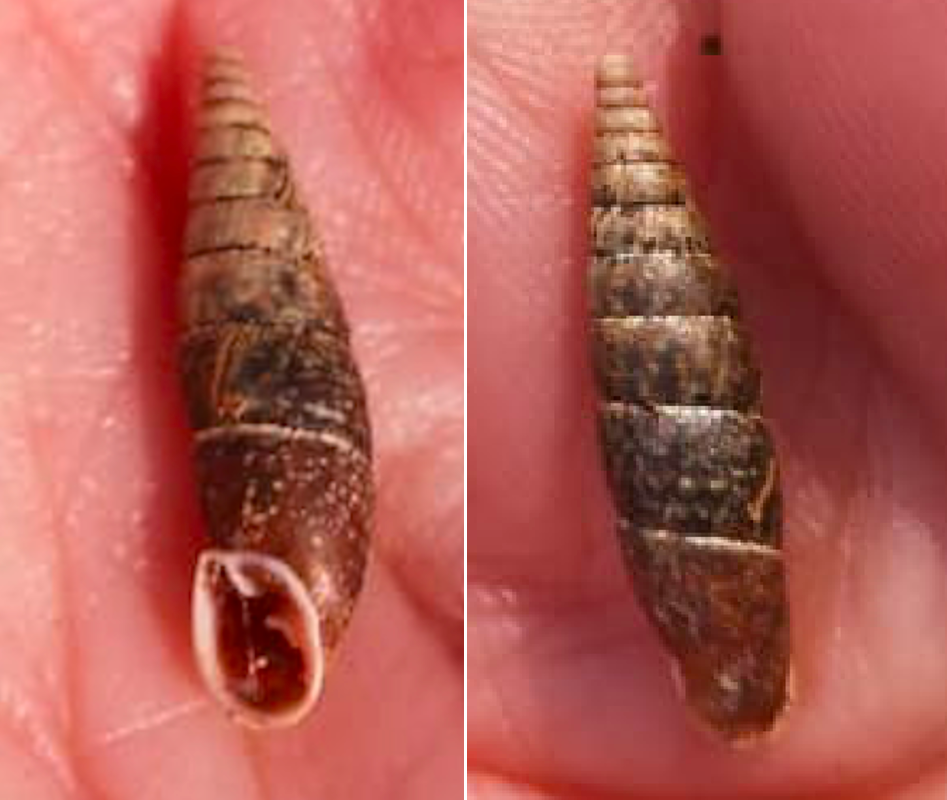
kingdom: Animalia
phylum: Mollusca
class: Gastropoda
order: Stylommatophora
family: Clausiliidae
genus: Cochlodina
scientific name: Cochlodina laminata
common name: Plaited door snail
